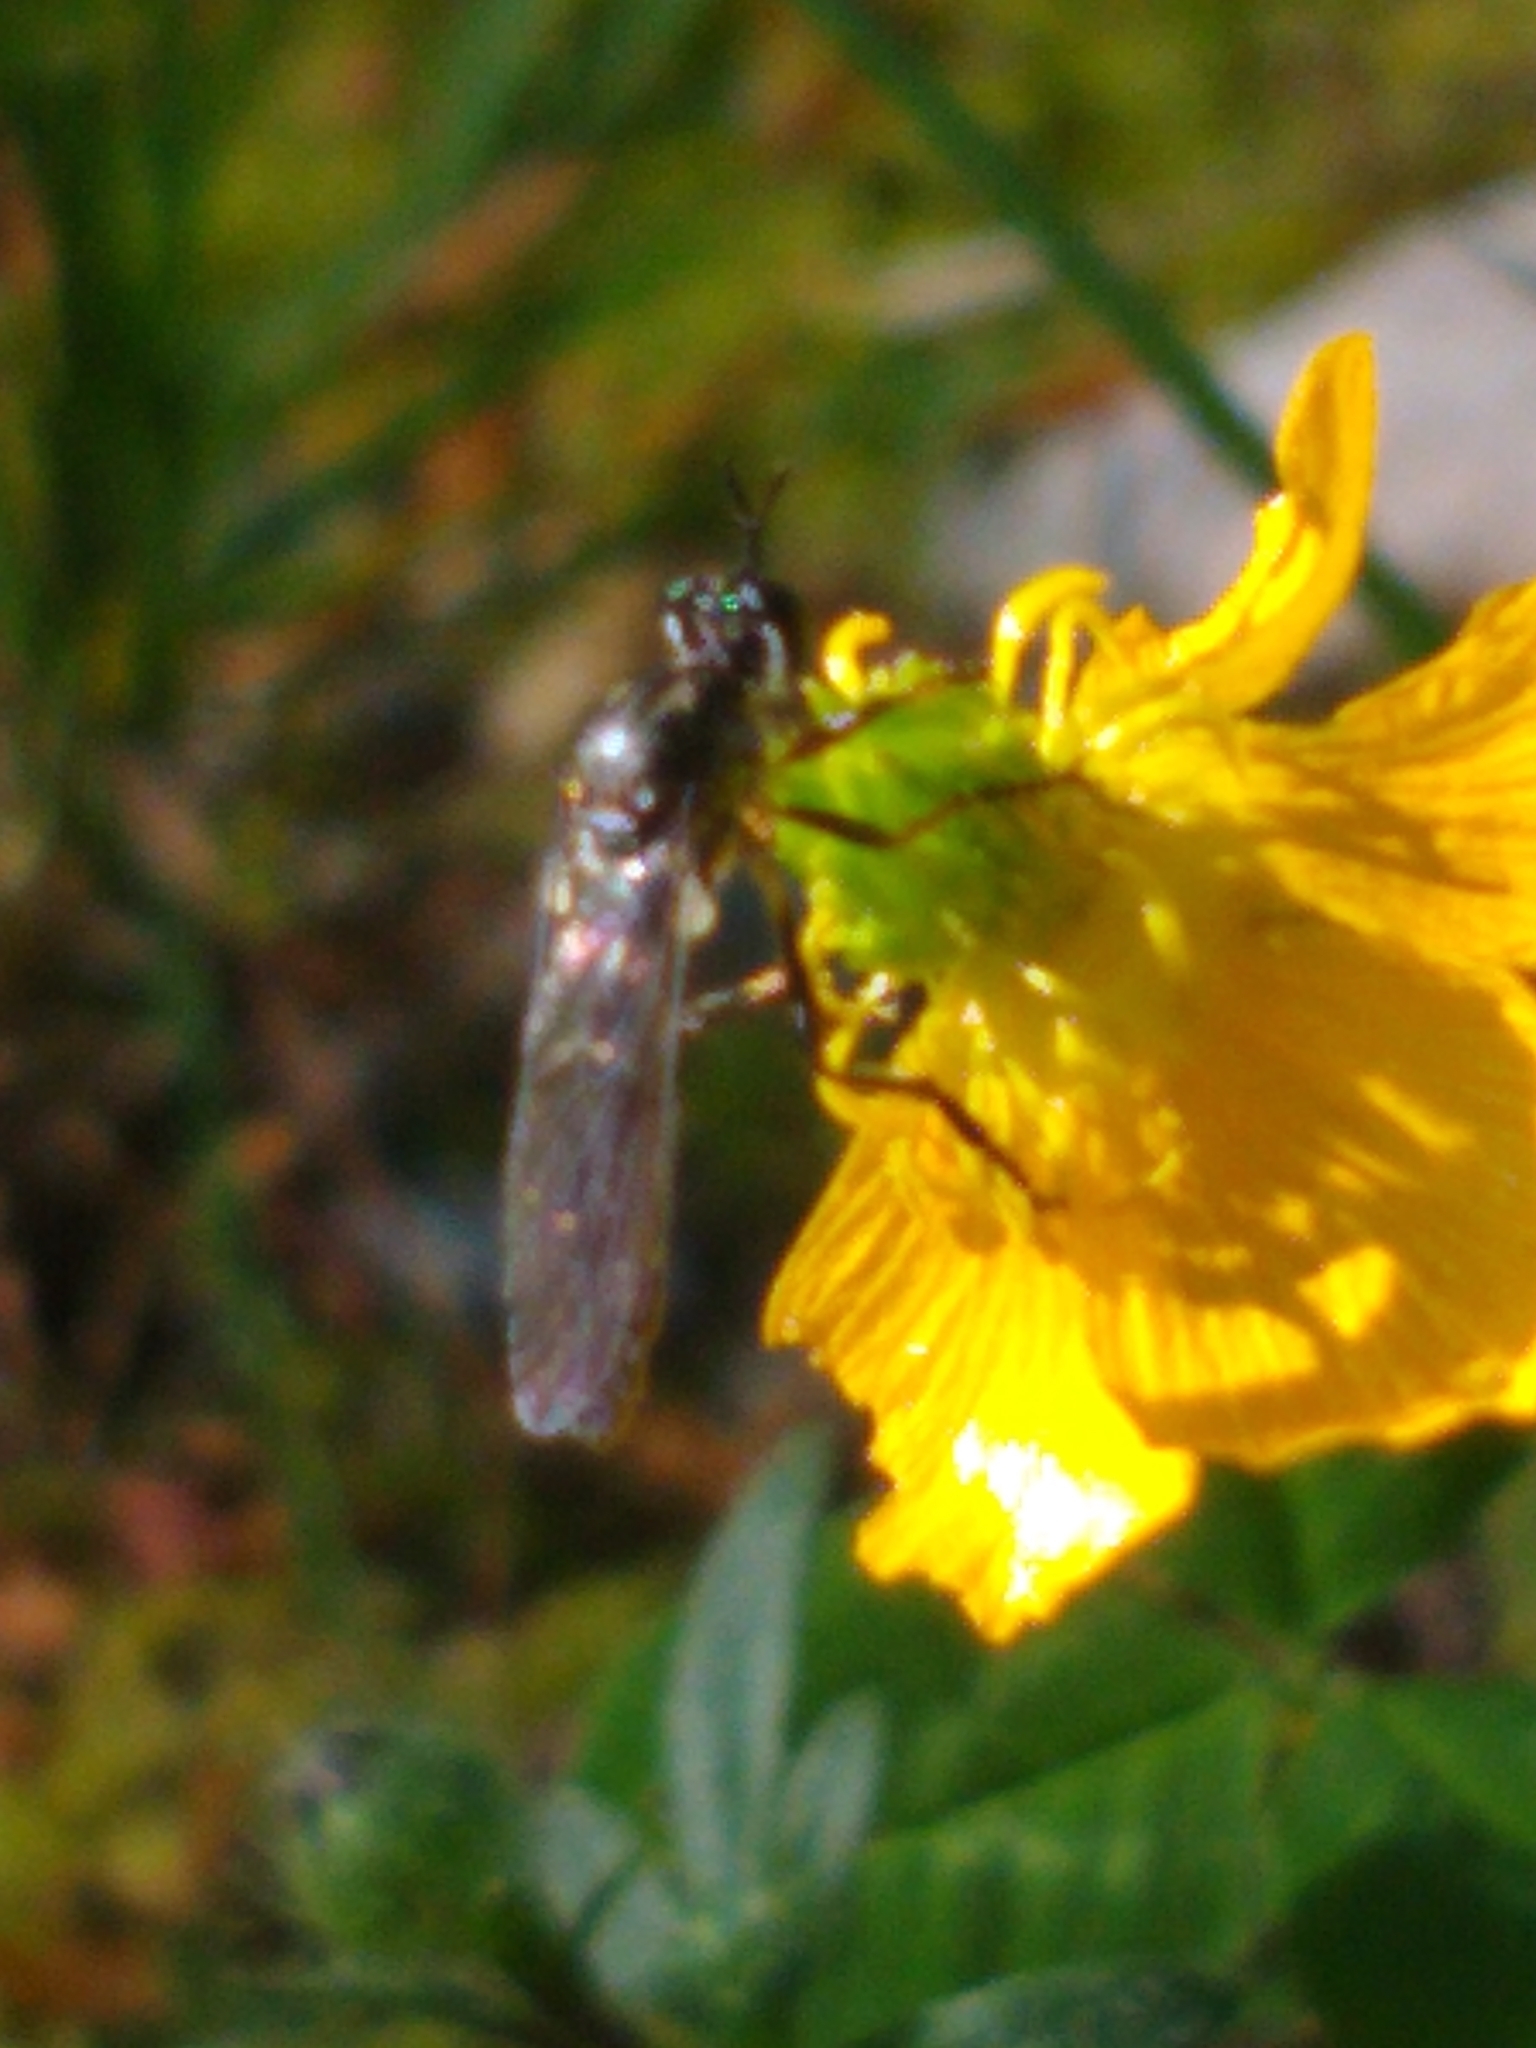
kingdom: Animalia
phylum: Arthropoda
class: Insecta
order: Diptera
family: Asilidae
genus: Dioctria
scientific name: Dioctria hyalipennis
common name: Stripe-legged robberfly
